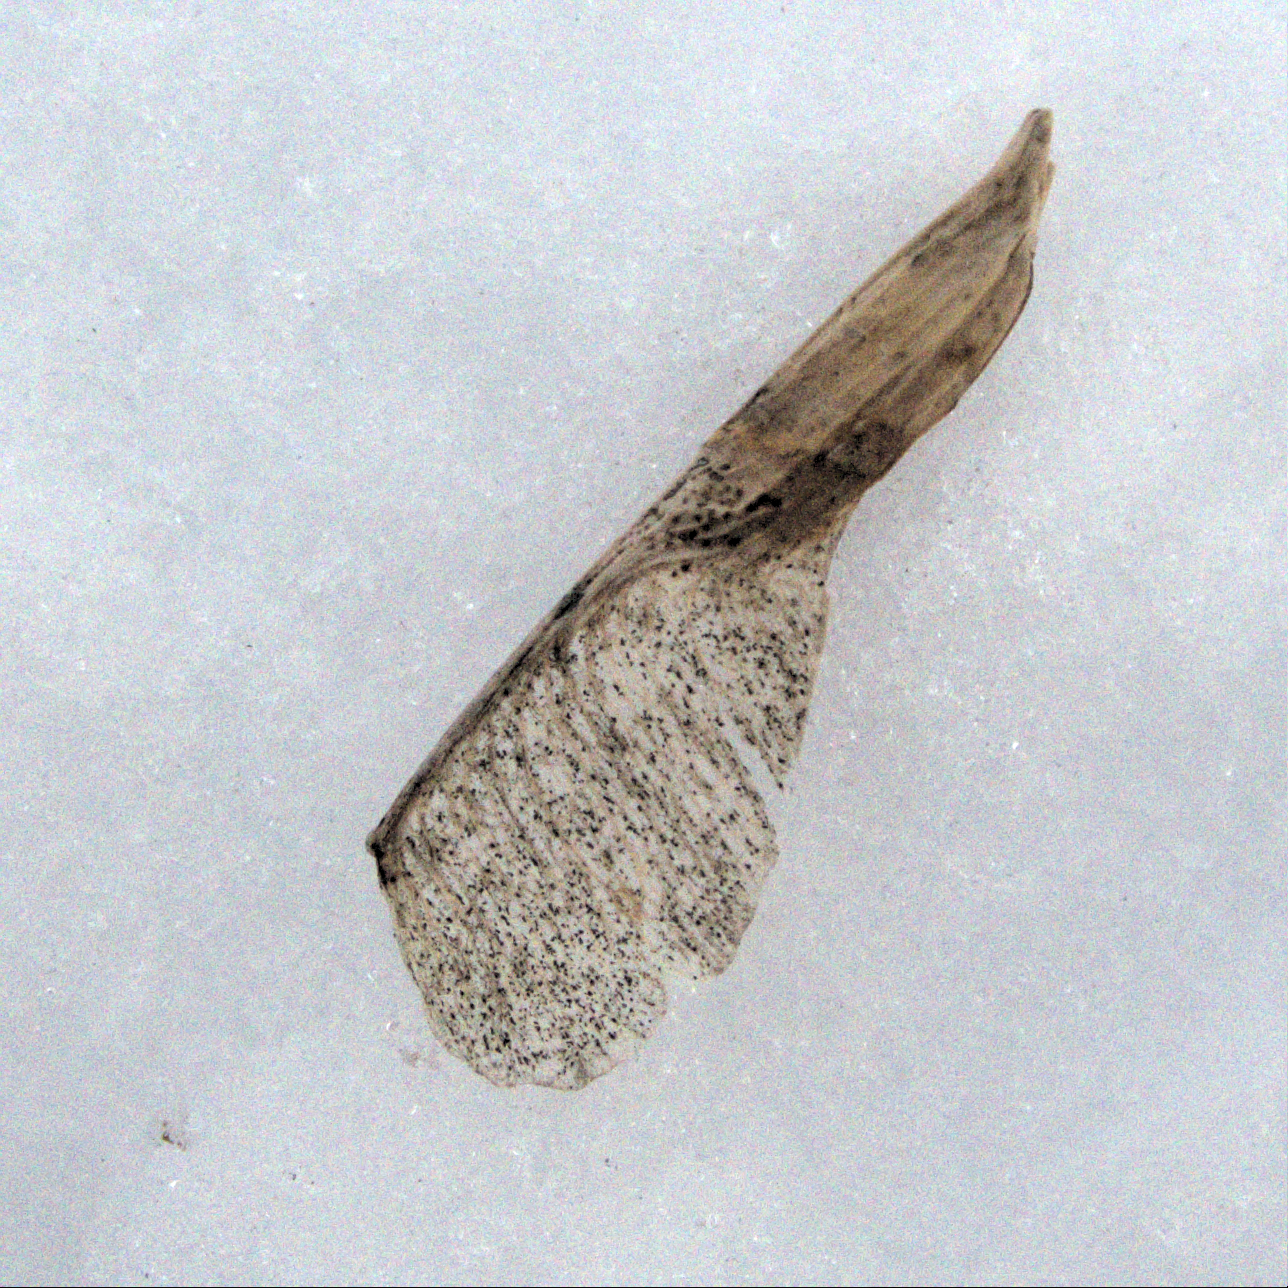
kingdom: Plantae
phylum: Tracheophyta
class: Magnoliopsida
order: Sapindales
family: Sapindaceae
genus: Acer
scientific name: Acer negundo
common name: Ashleaf maple
